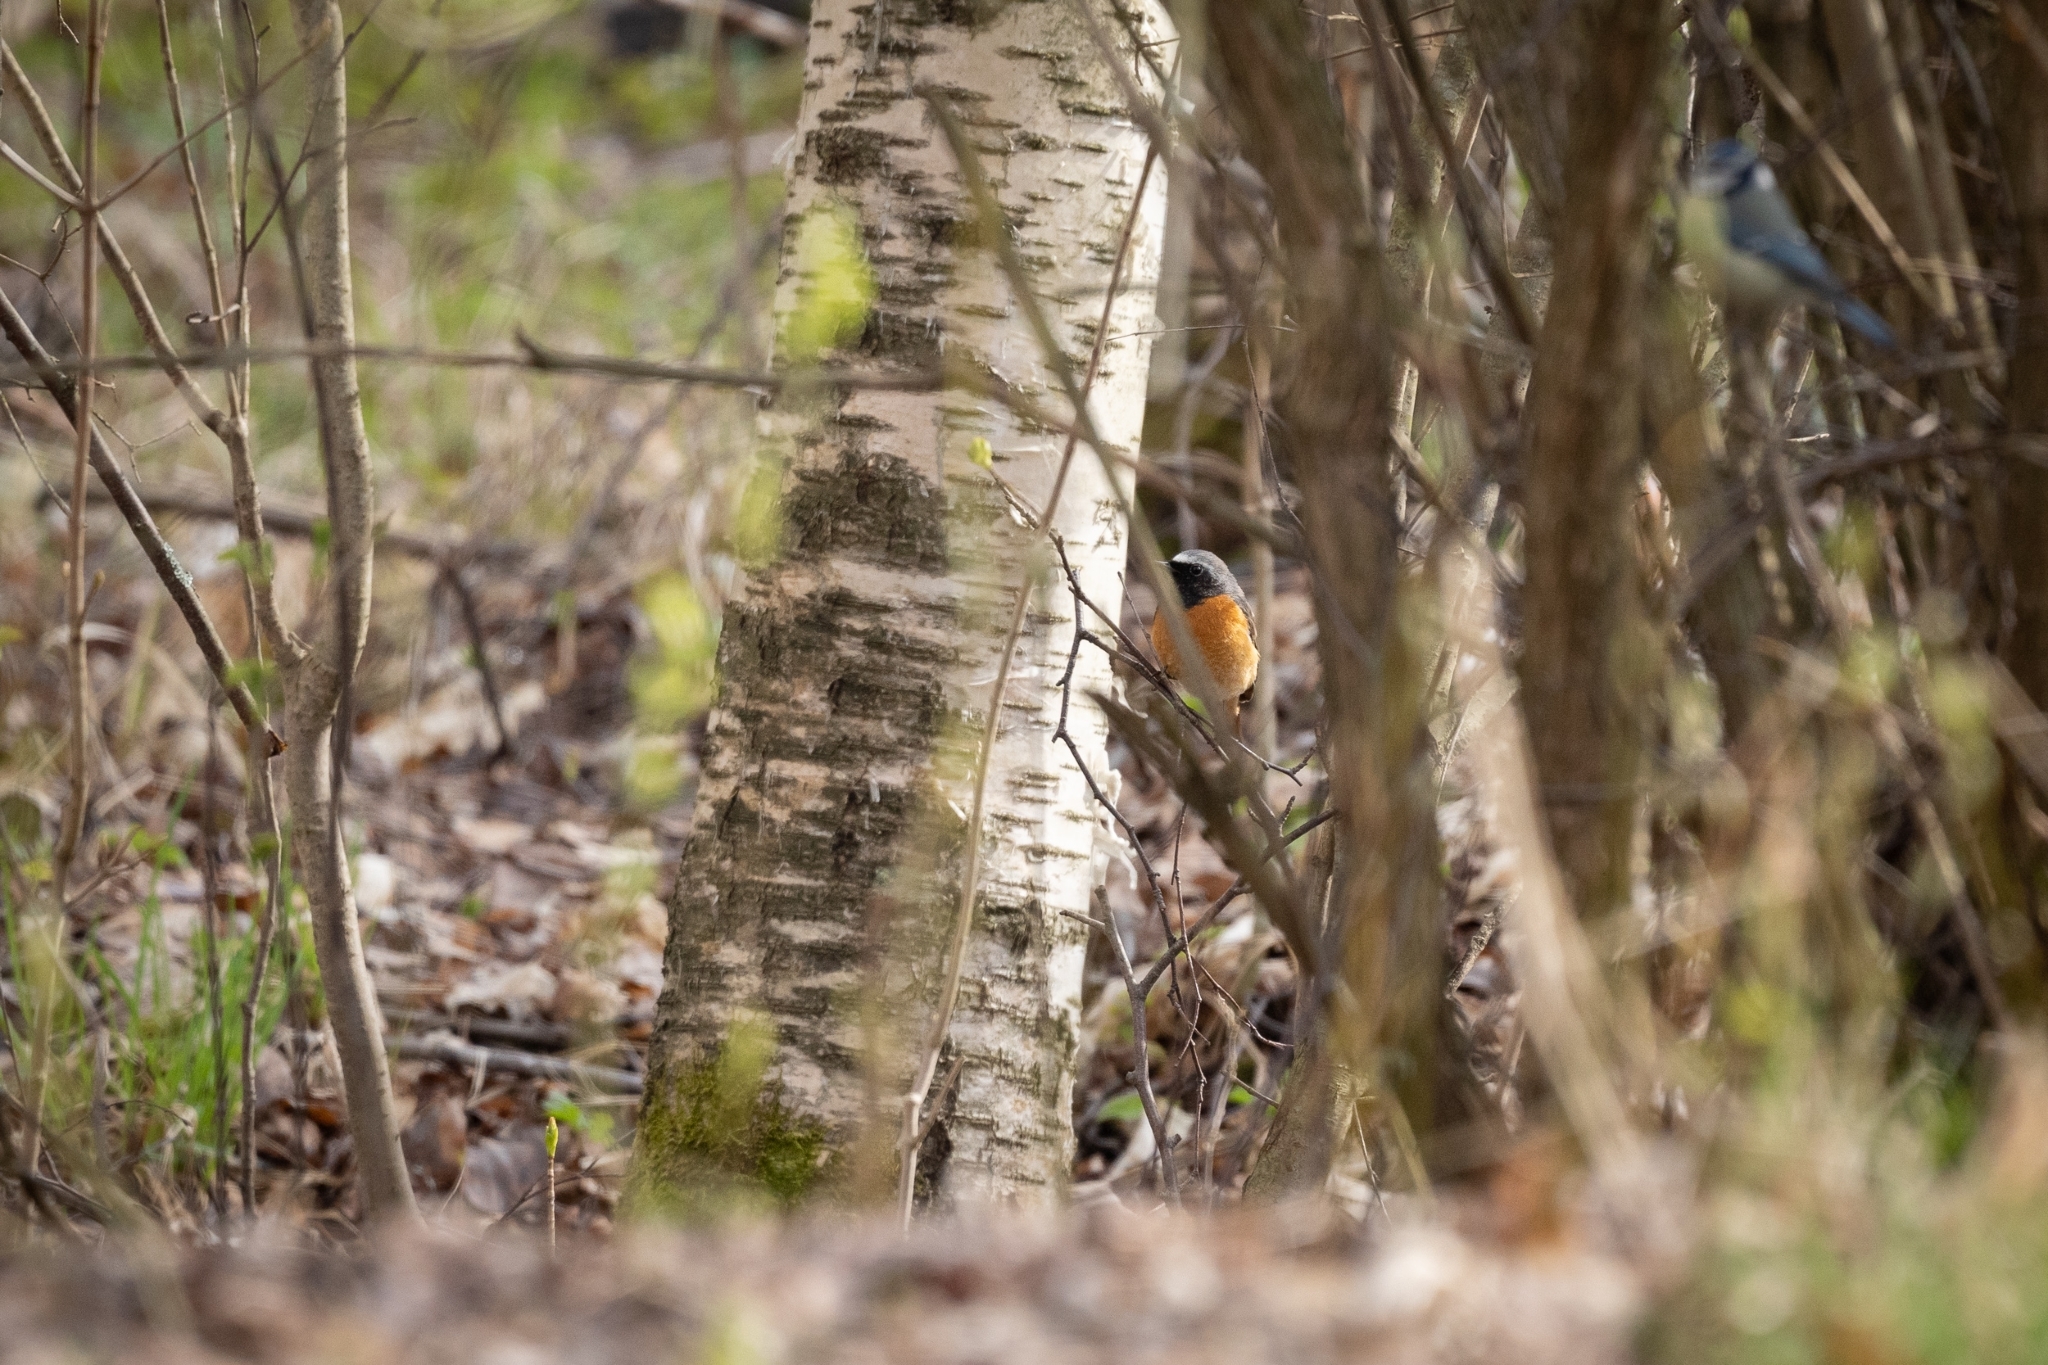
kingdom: Animalia
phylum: Chordata
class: Aves
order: Passeriformes
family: Muscicapidae
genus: Phoenicurus
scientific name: Phoenicurus phoenicurus
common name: Common redstart
